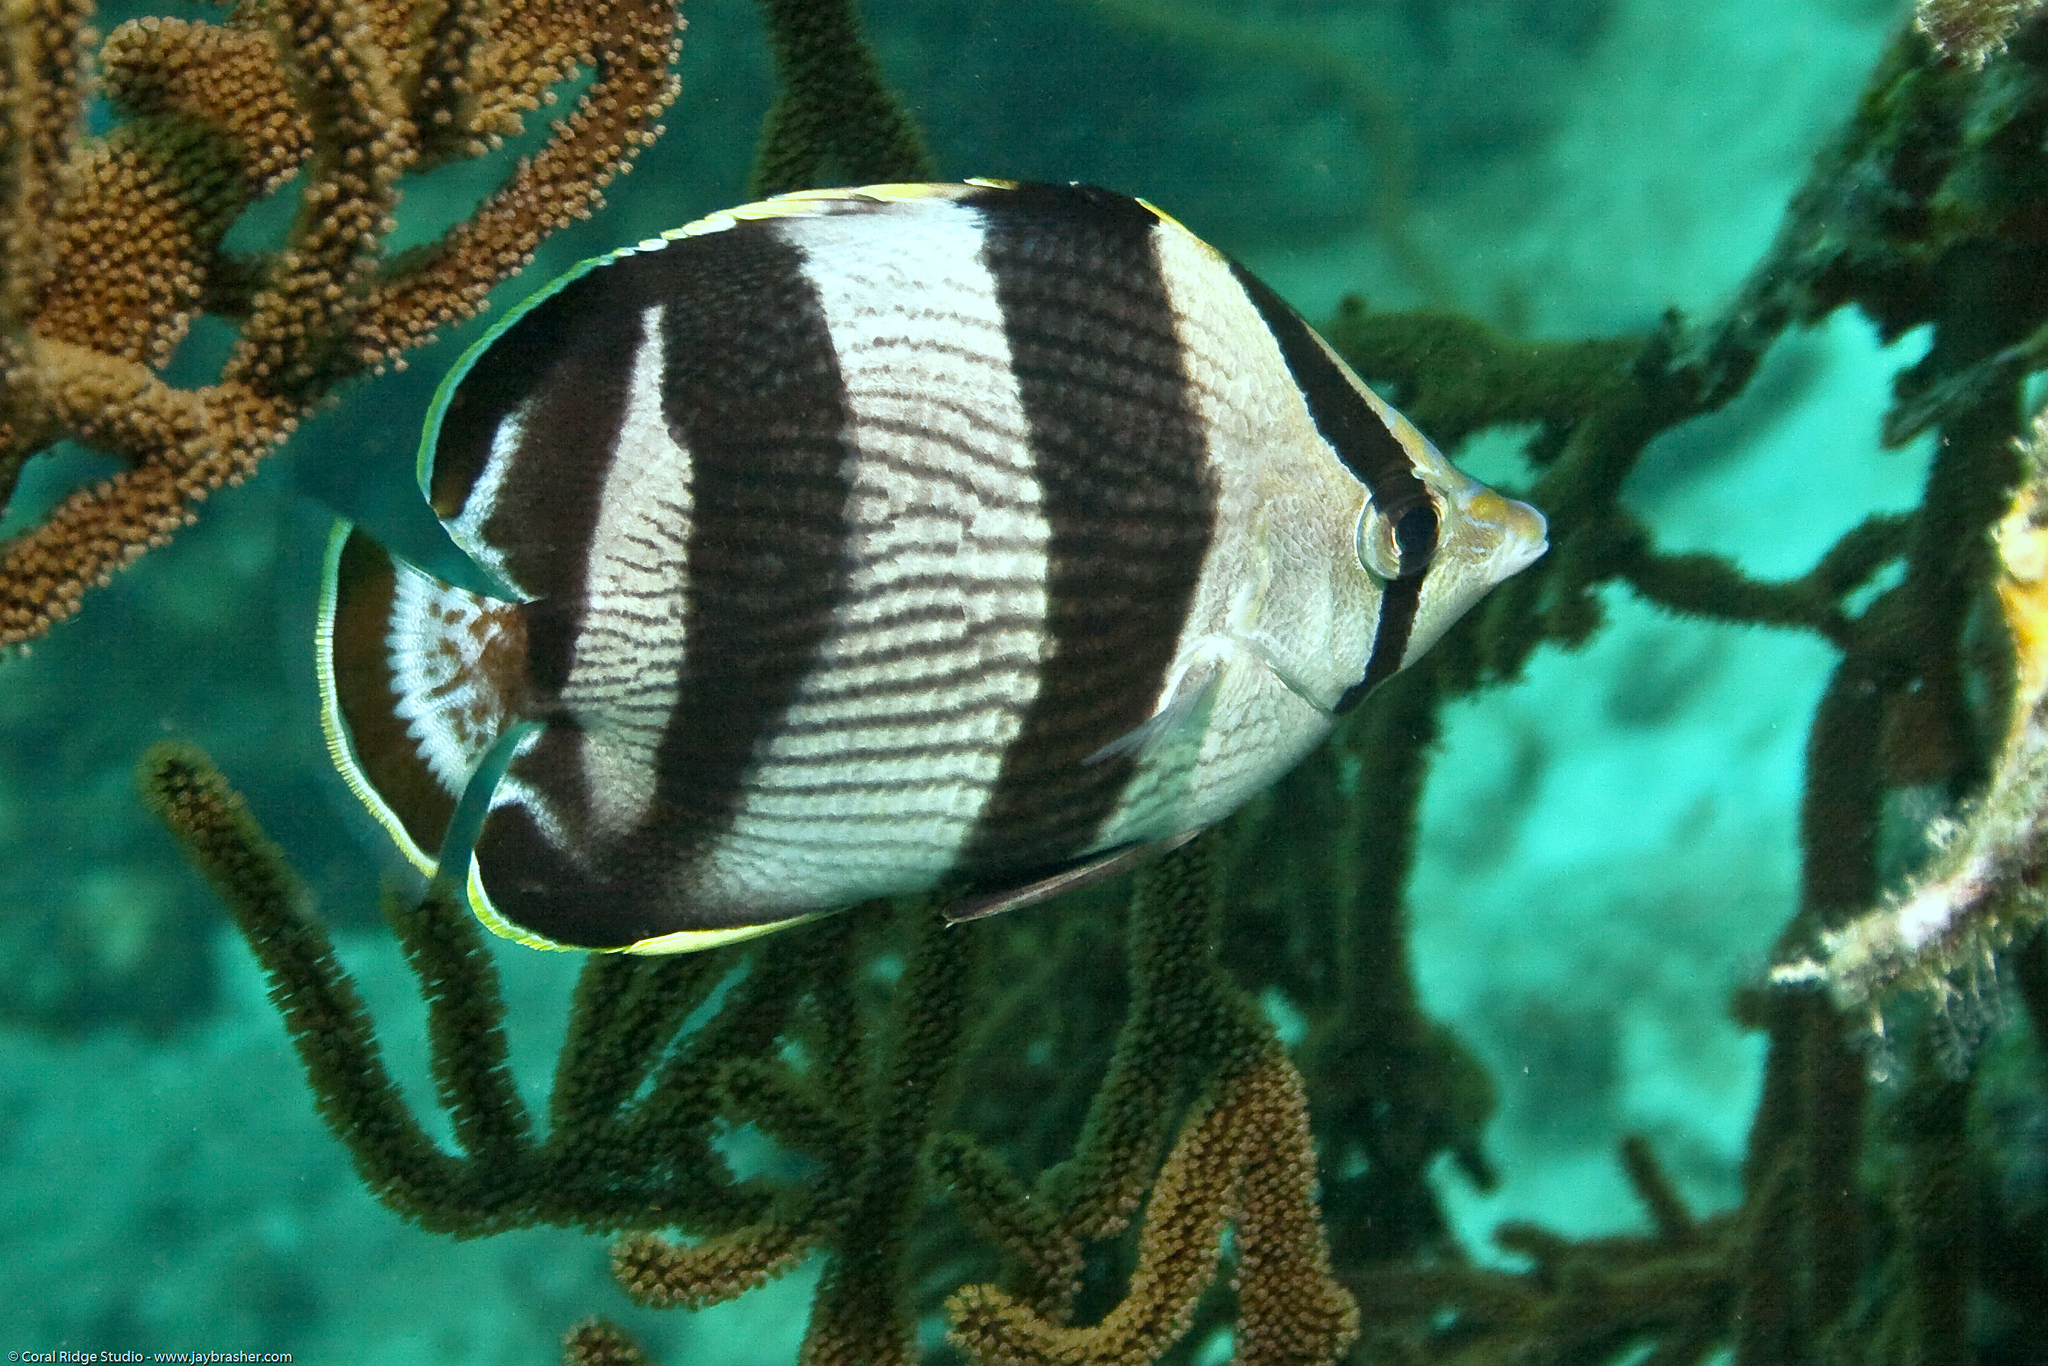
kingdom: Animalia
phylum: Chordata
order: Perciformes
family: Chaetodontidae
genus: Chaetodon
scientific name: Chaetodon striatus
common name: Banded butterflyfish
